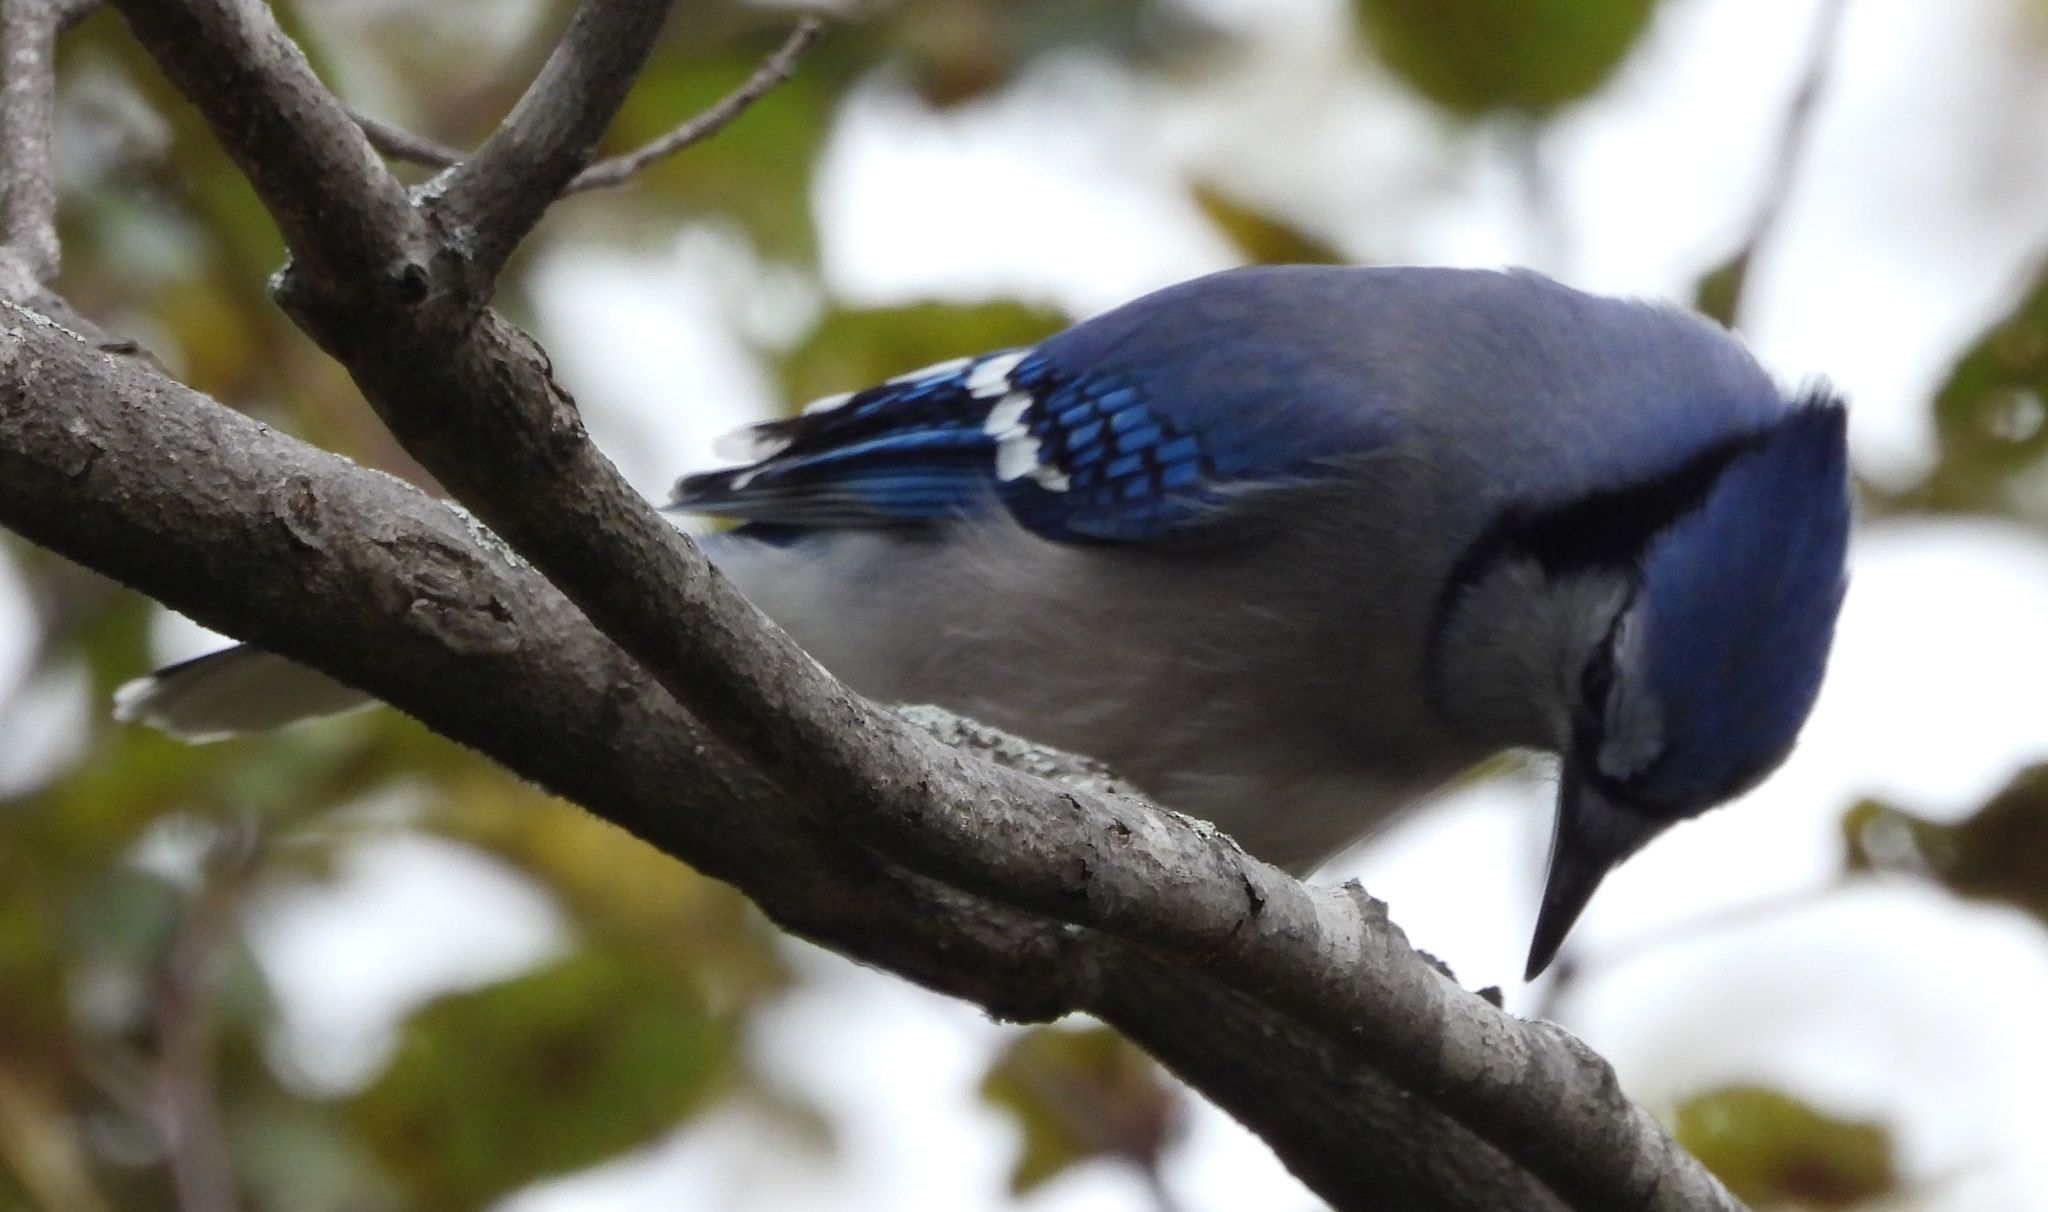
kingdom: Animalia
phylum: Chordata
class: Aves
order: Passeriformes
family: Corvidae
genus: Cyanocitta
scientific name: Cyanocitta cristata
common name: Blue jay
